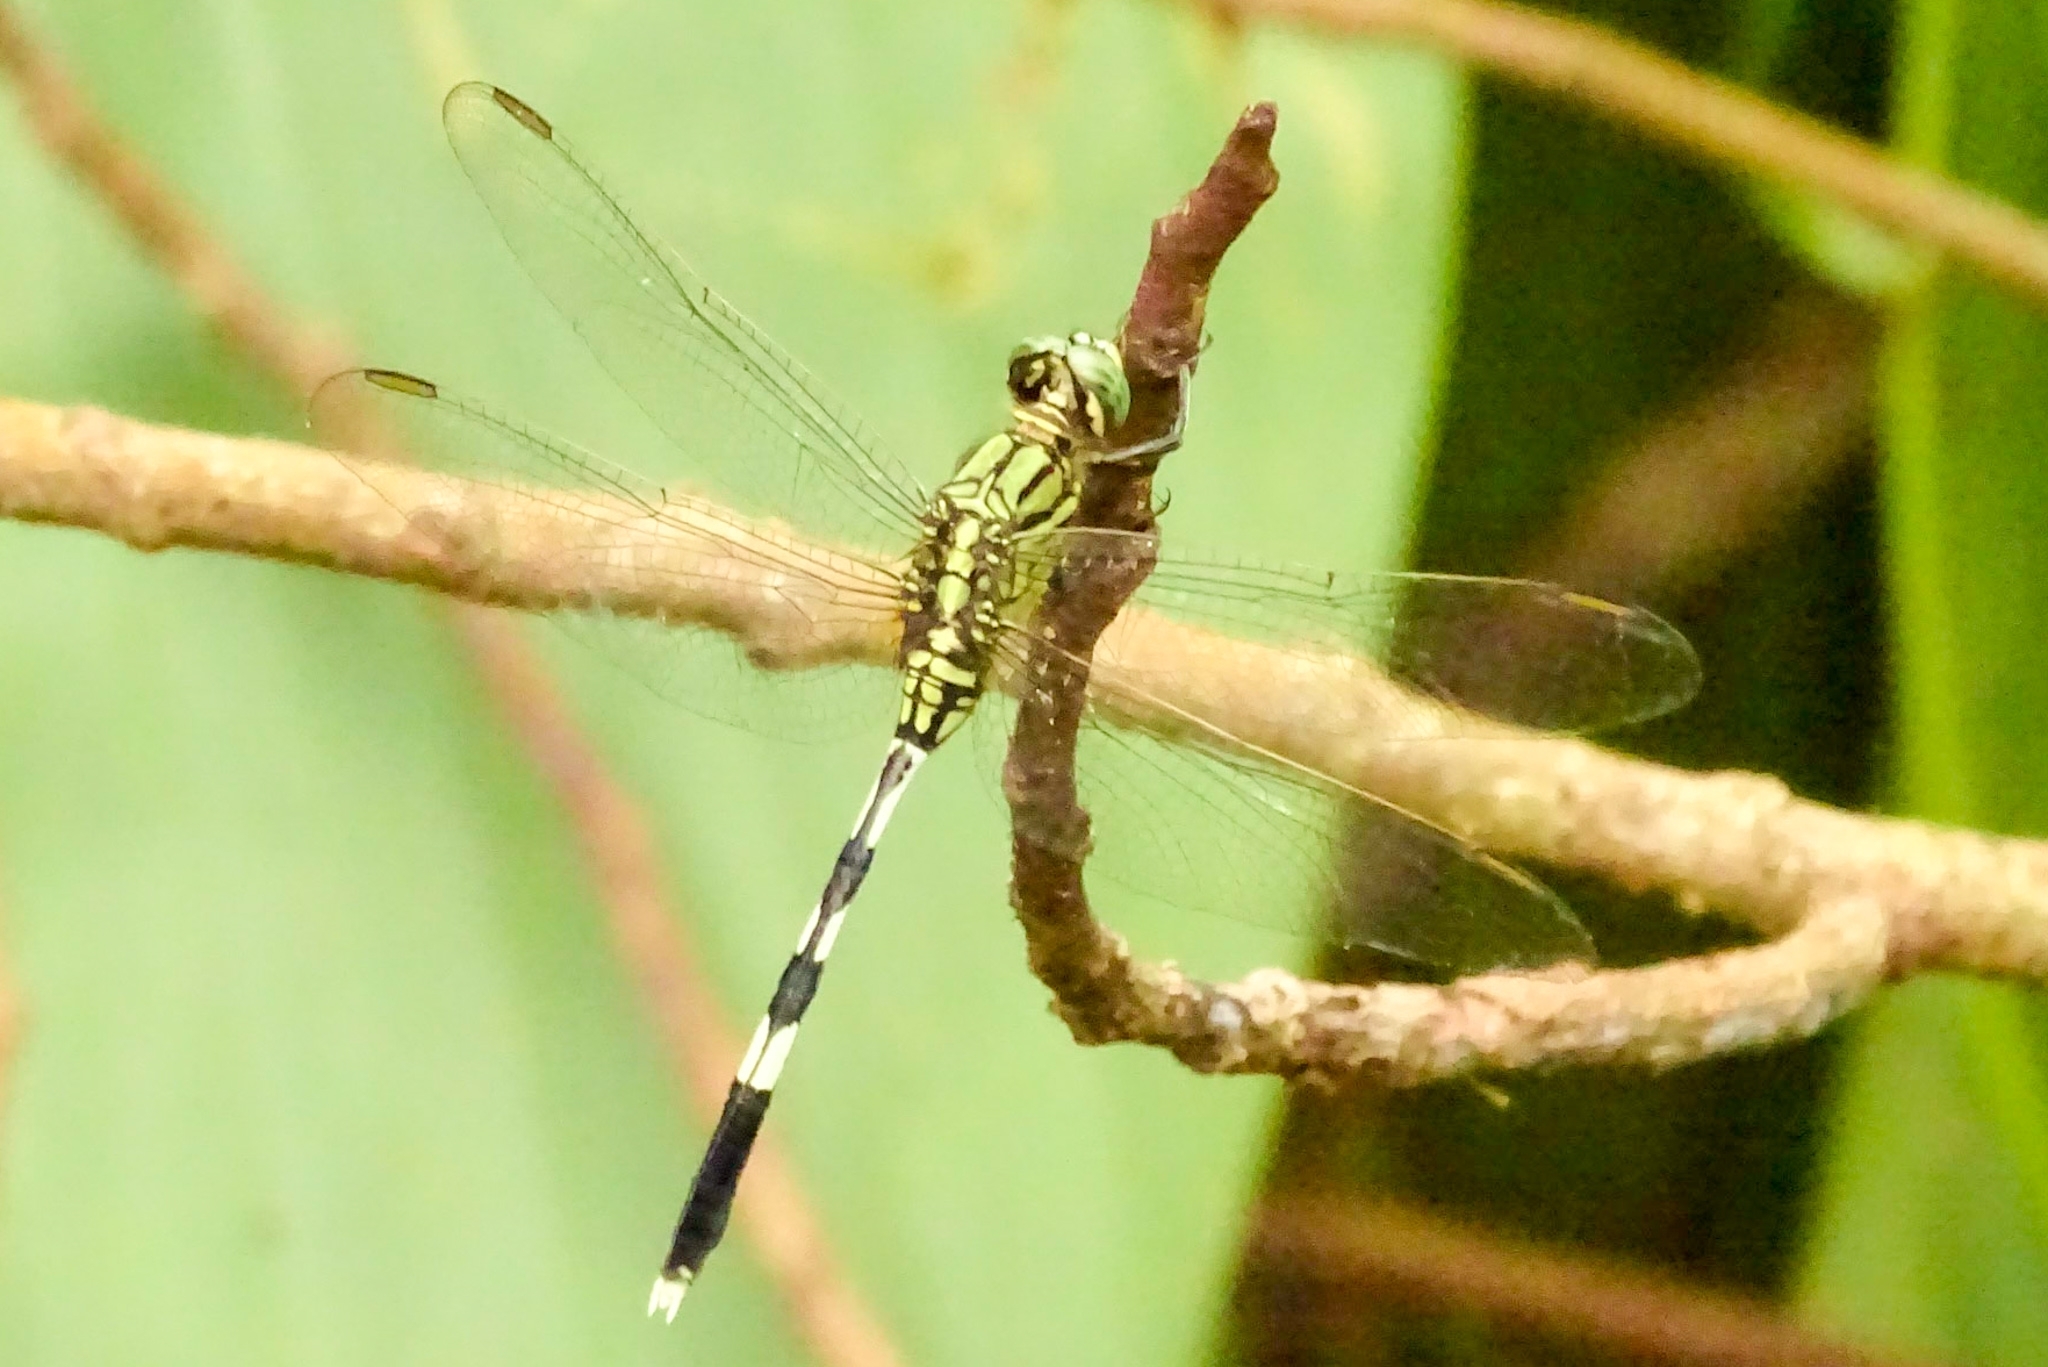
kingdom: Animalia
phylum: Arthropoda
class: Insecta
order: Odonata
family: Libellulidae
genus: Orthetrum
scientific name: Orthetrum sabina
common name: Slender skimmer
